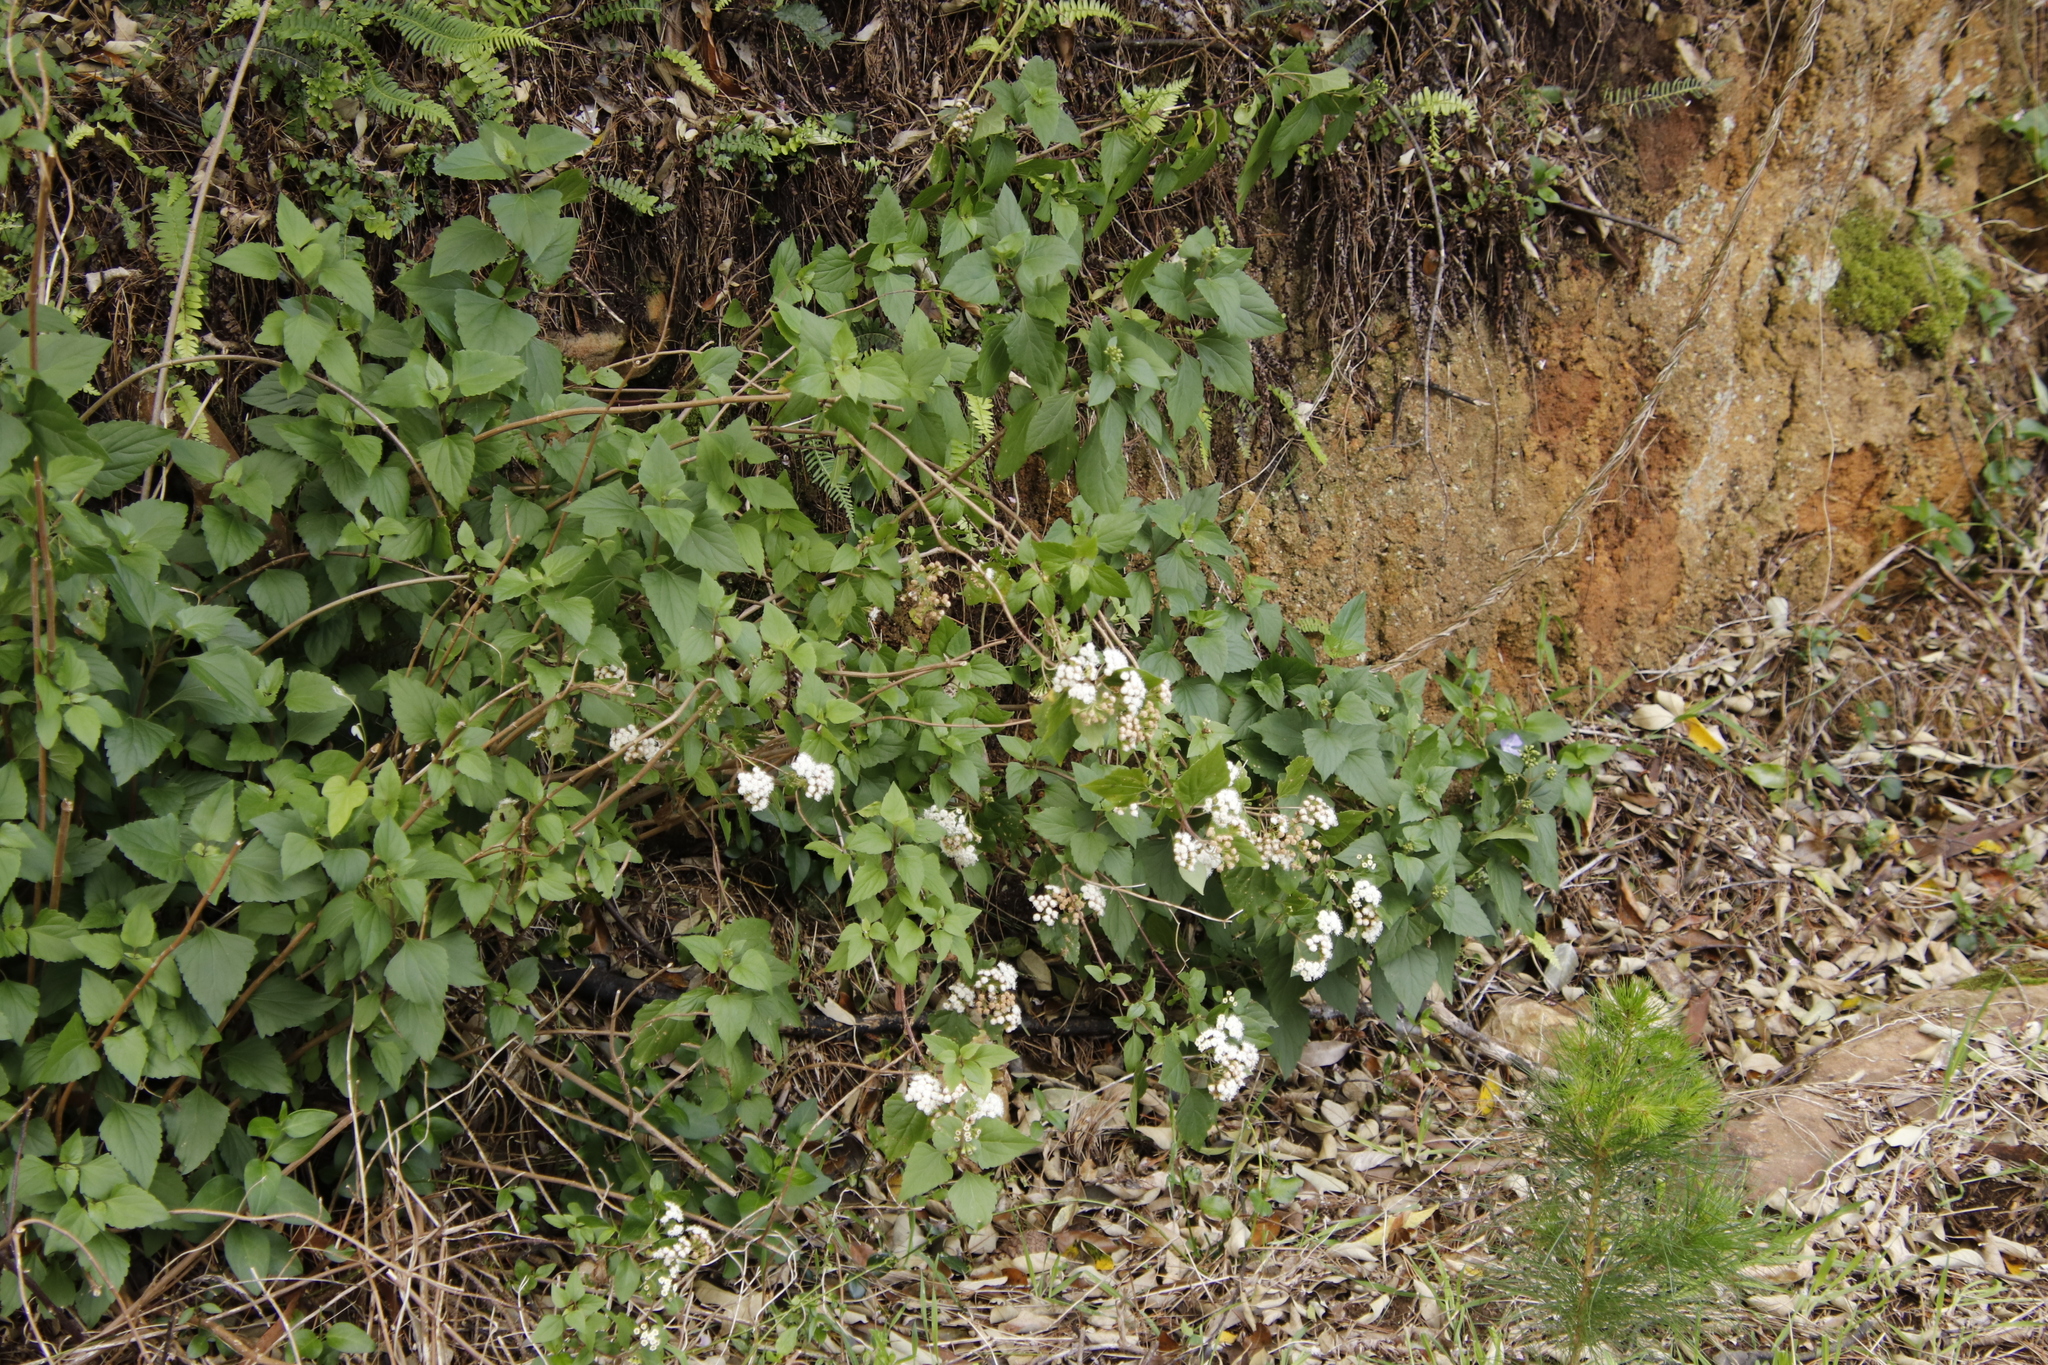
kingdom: Plantae
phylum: Tracheophyta
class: Magnoliopsida
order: Asterales
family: Asteraceae
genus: Ageratina
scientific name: Ageratina adenophora
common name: Sticky snakeroot
